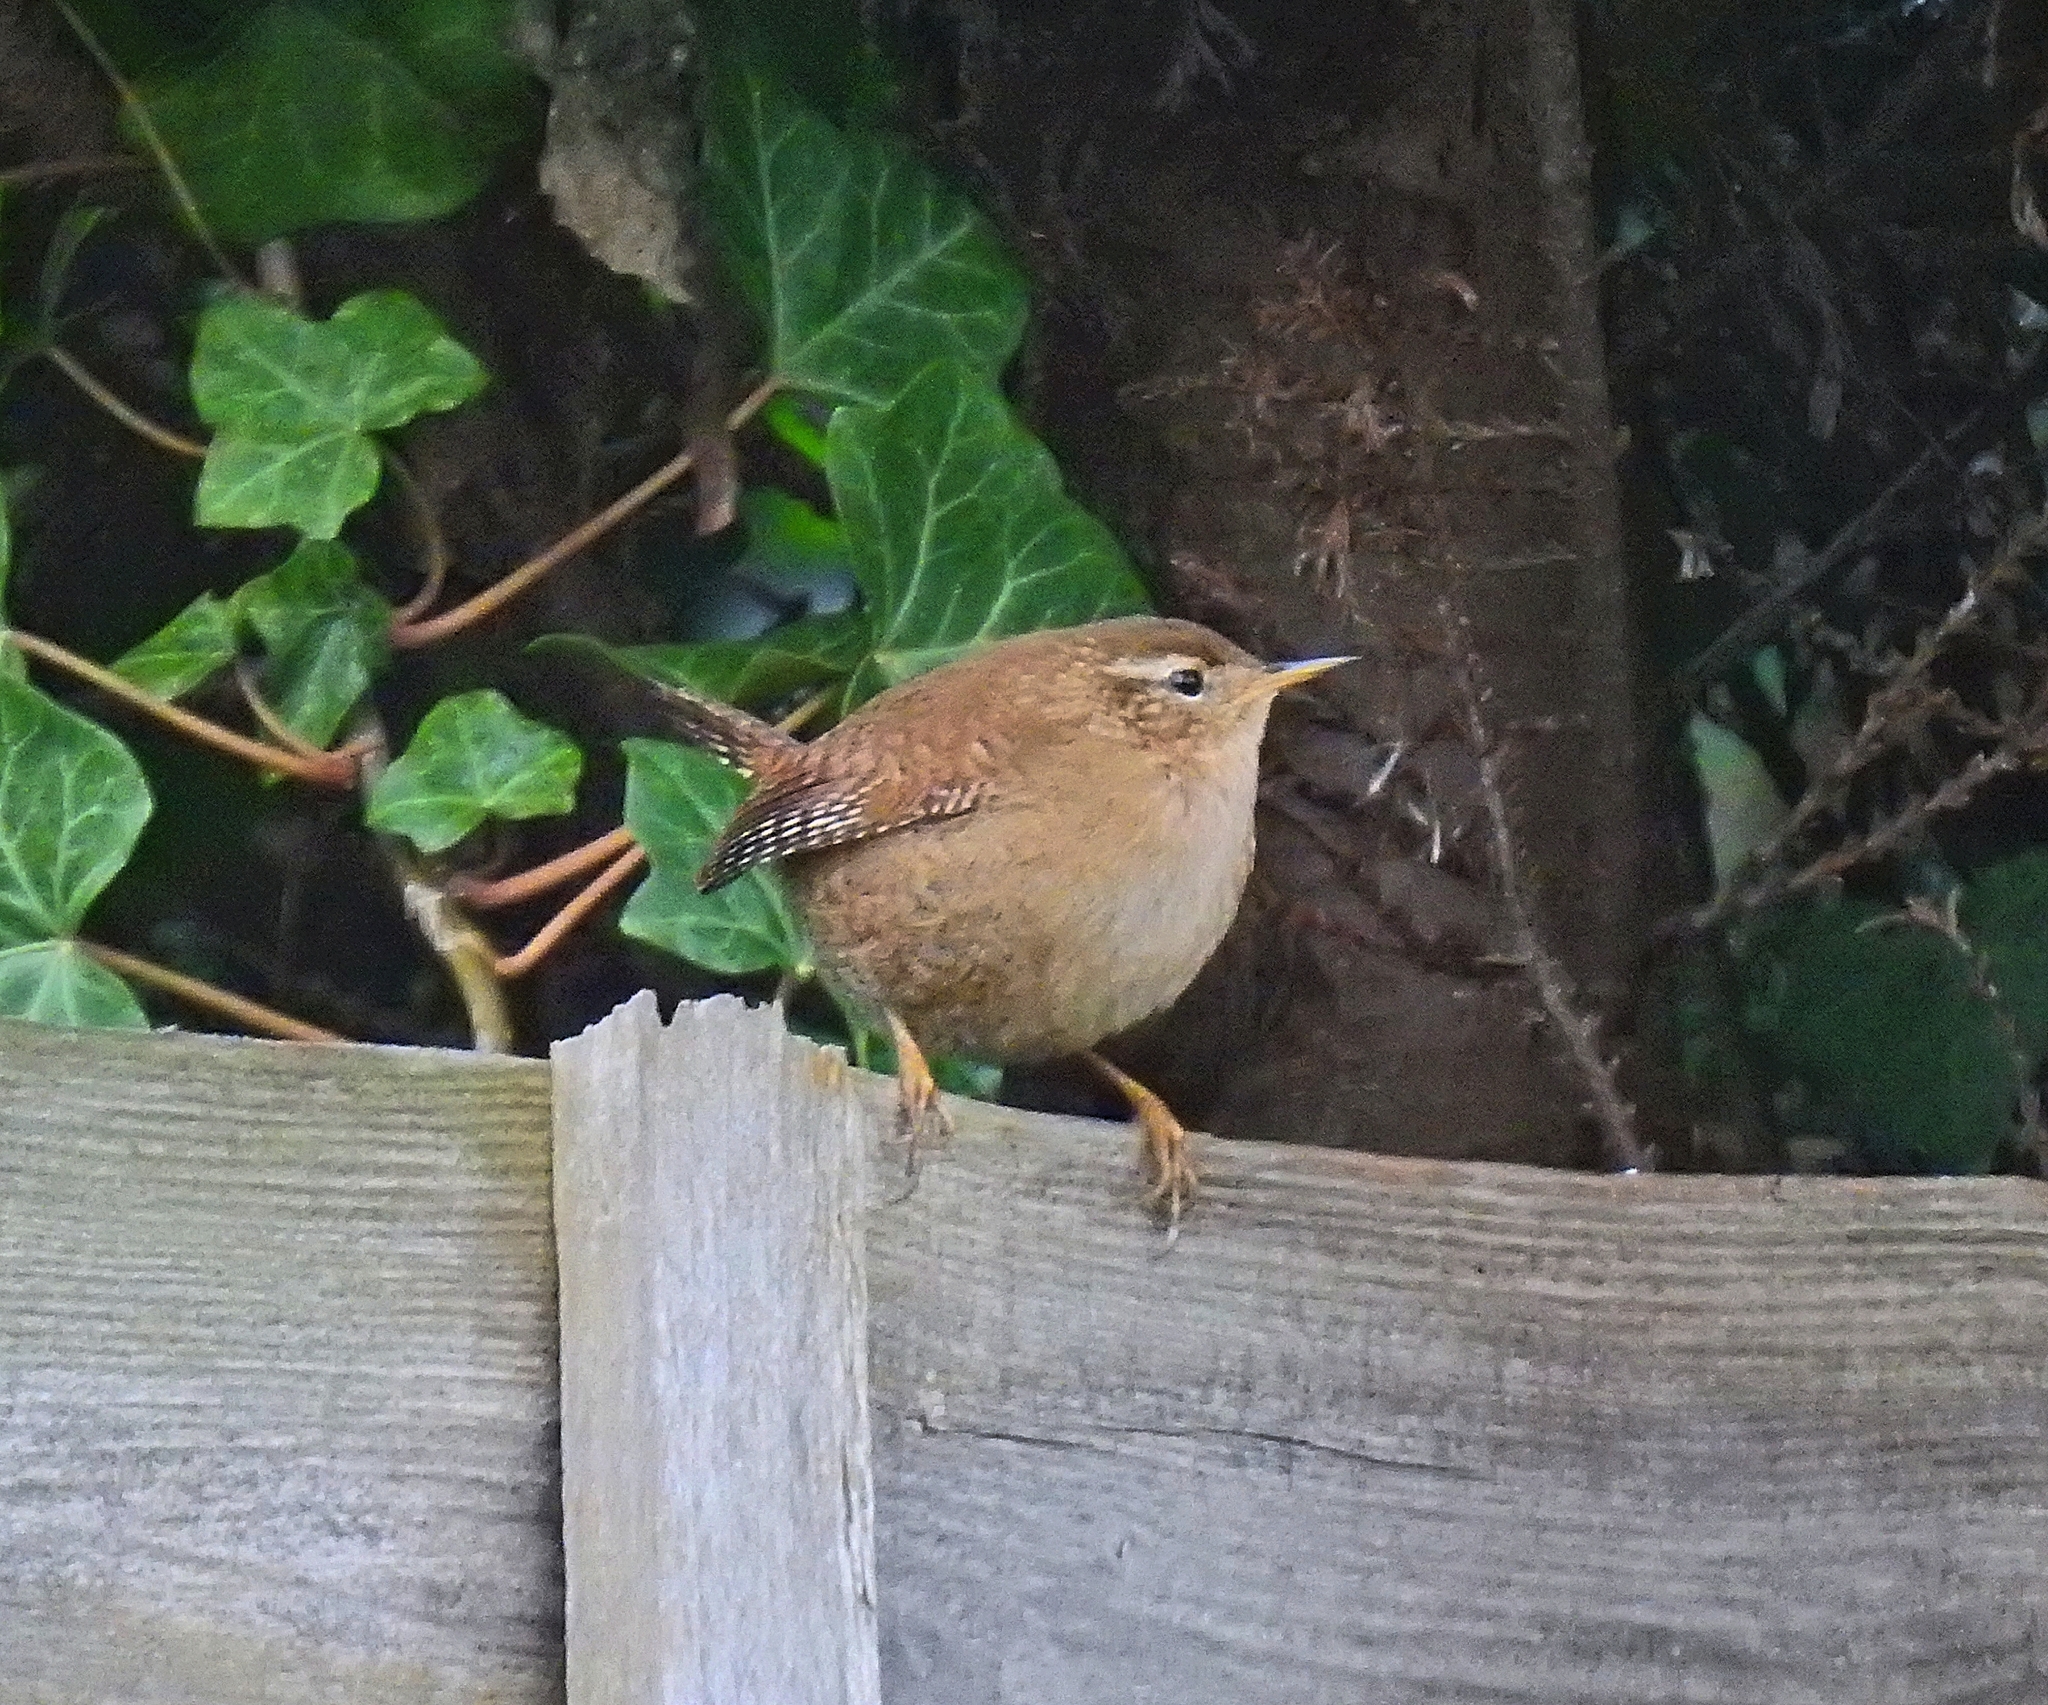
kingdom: Animalia
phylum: Chordata
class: Aves
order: Passeriformes
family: Troglodytidae
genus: Troglodytes
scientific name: Troglodytes troglodytes
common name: Eurasian wren
